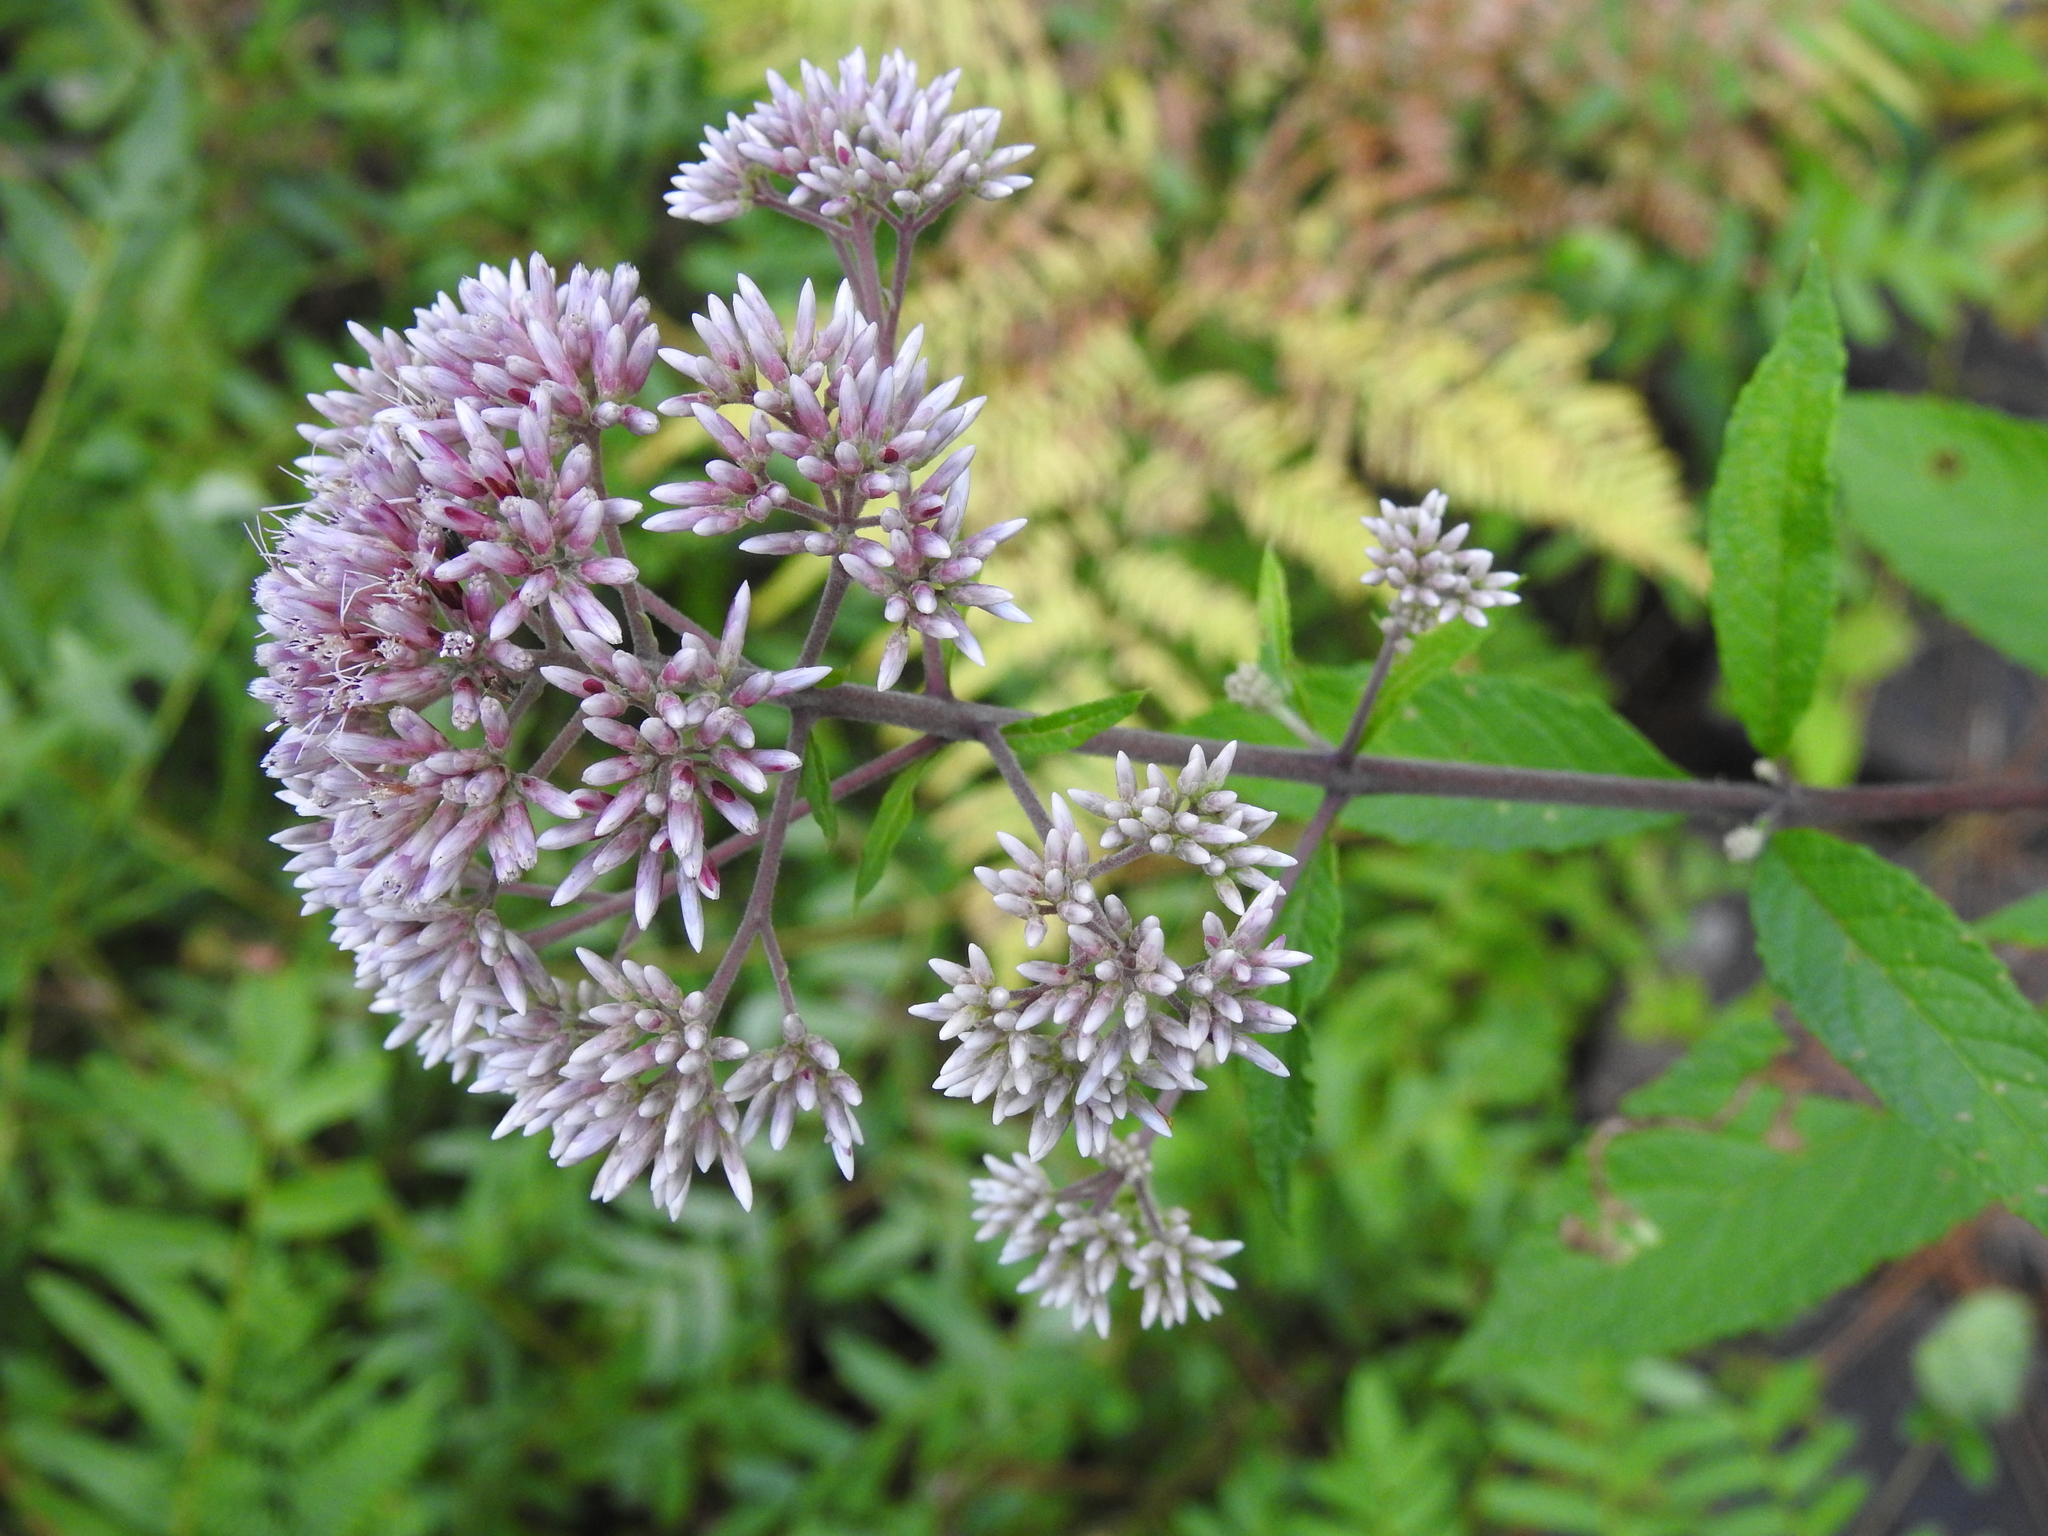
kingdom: Plantae
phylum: Tracheophyta
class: Magnoliopsida
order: Asterales
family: Asteraceae
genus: Eutrochium
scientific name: Eutrochium fistulosum
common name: Trumpetweed
